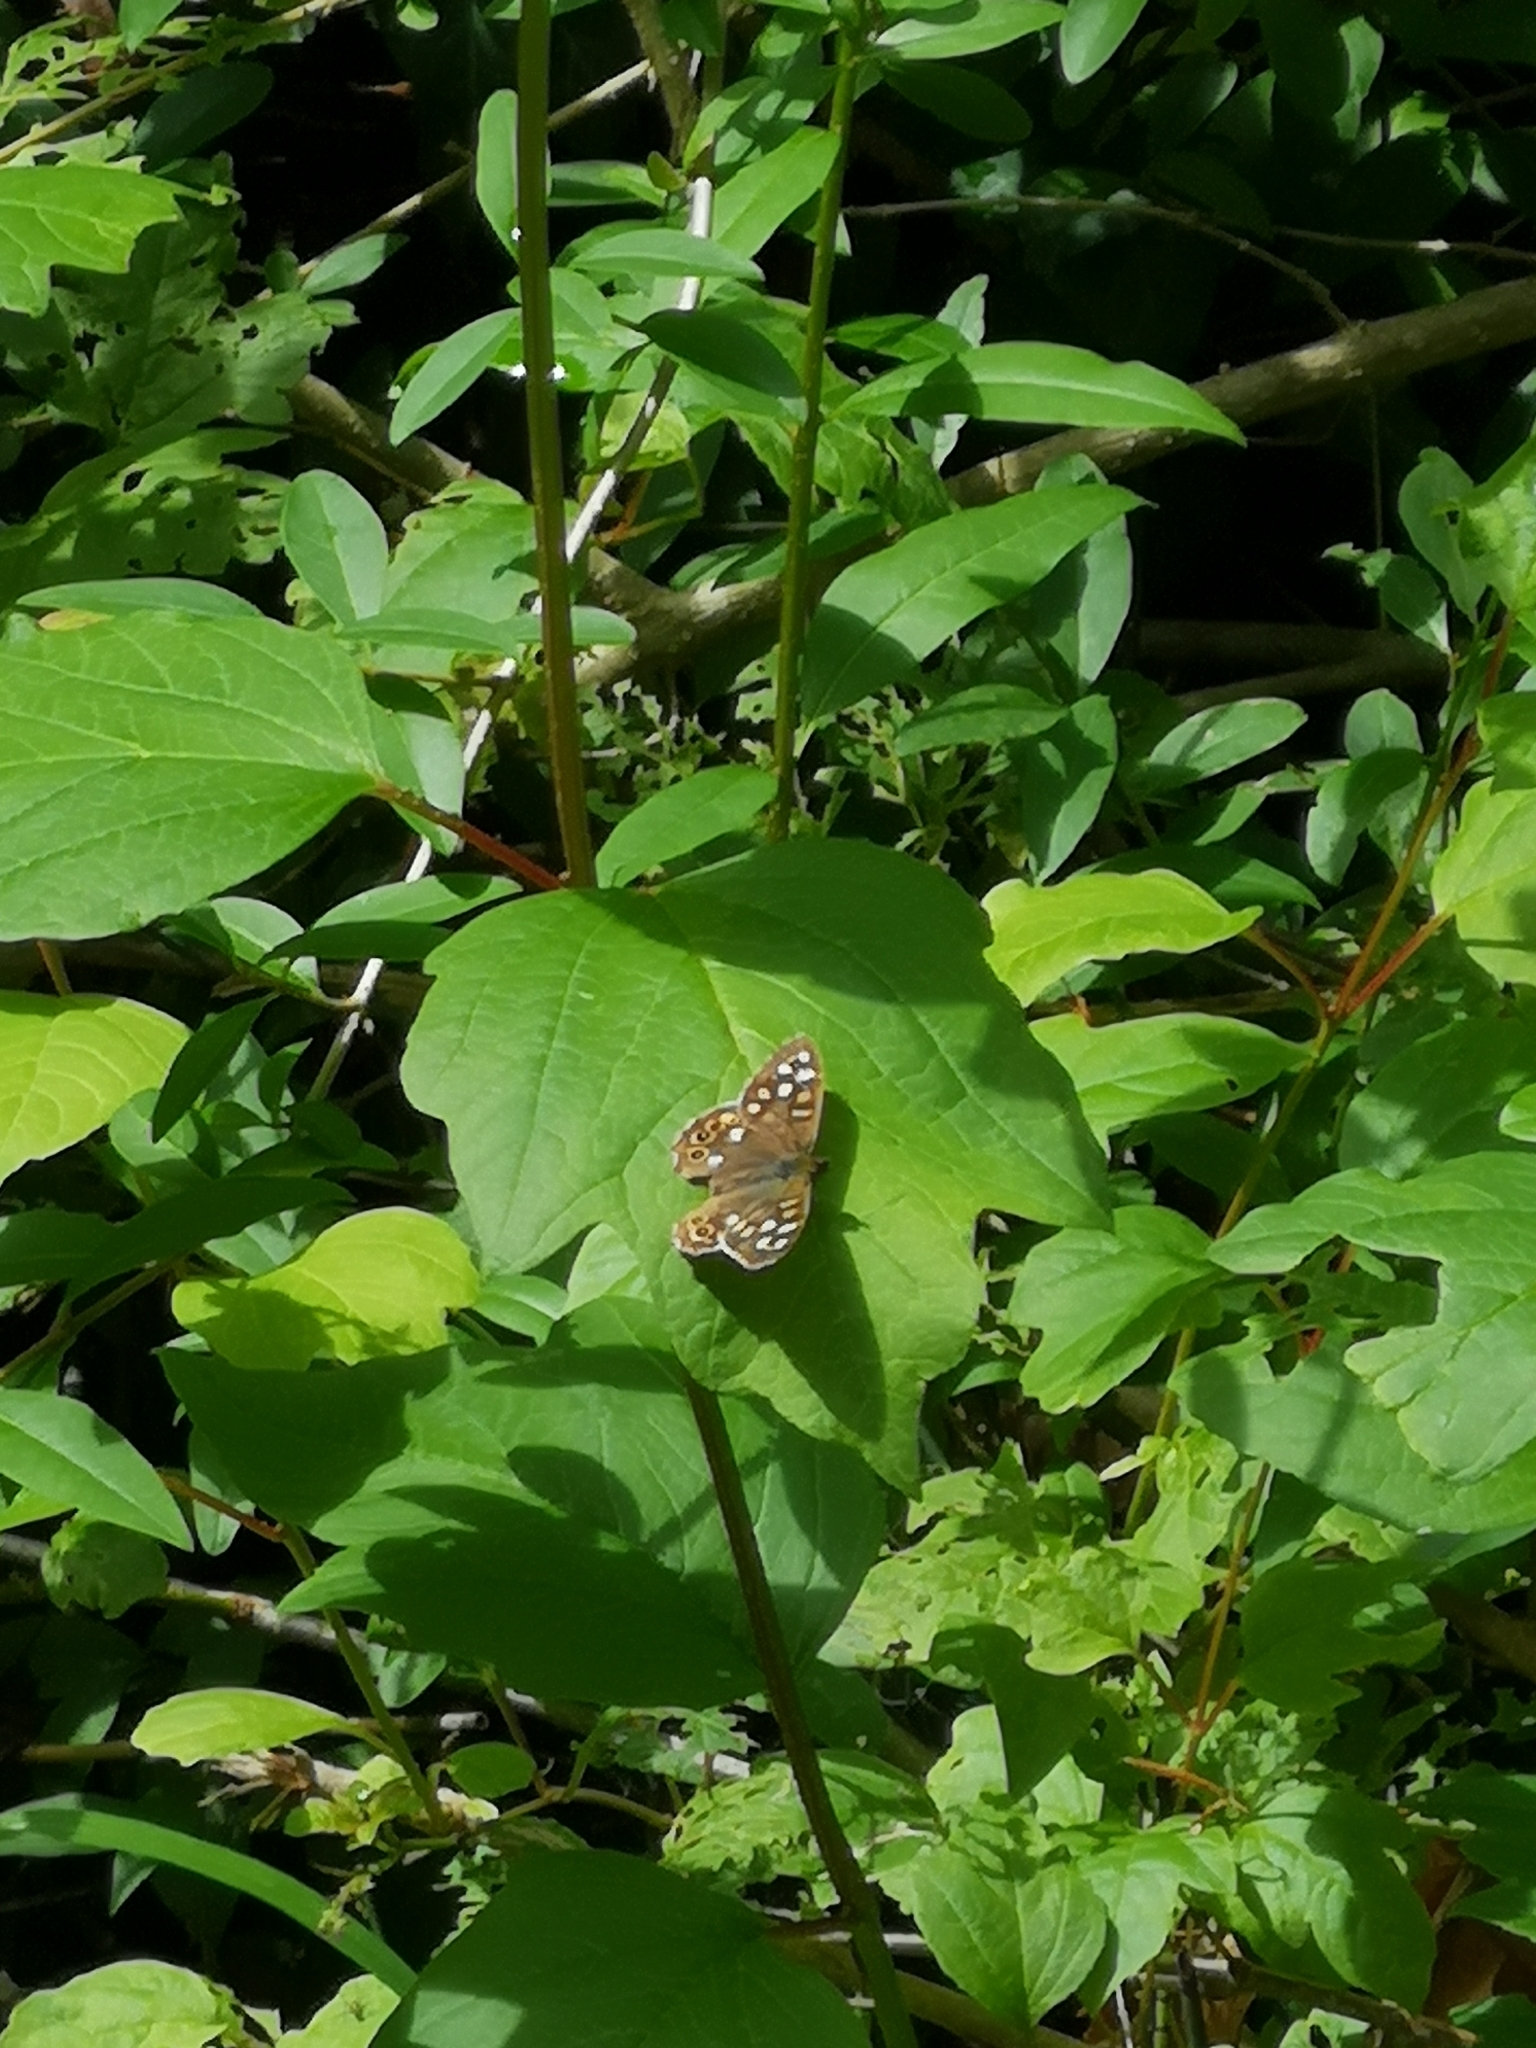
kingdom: Animalia
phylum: Arthropoda
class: Insecta
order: Lepidoptera
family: Nymphalidae
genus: Pararge
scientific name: Pararge aegeria
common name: Speckled wood
